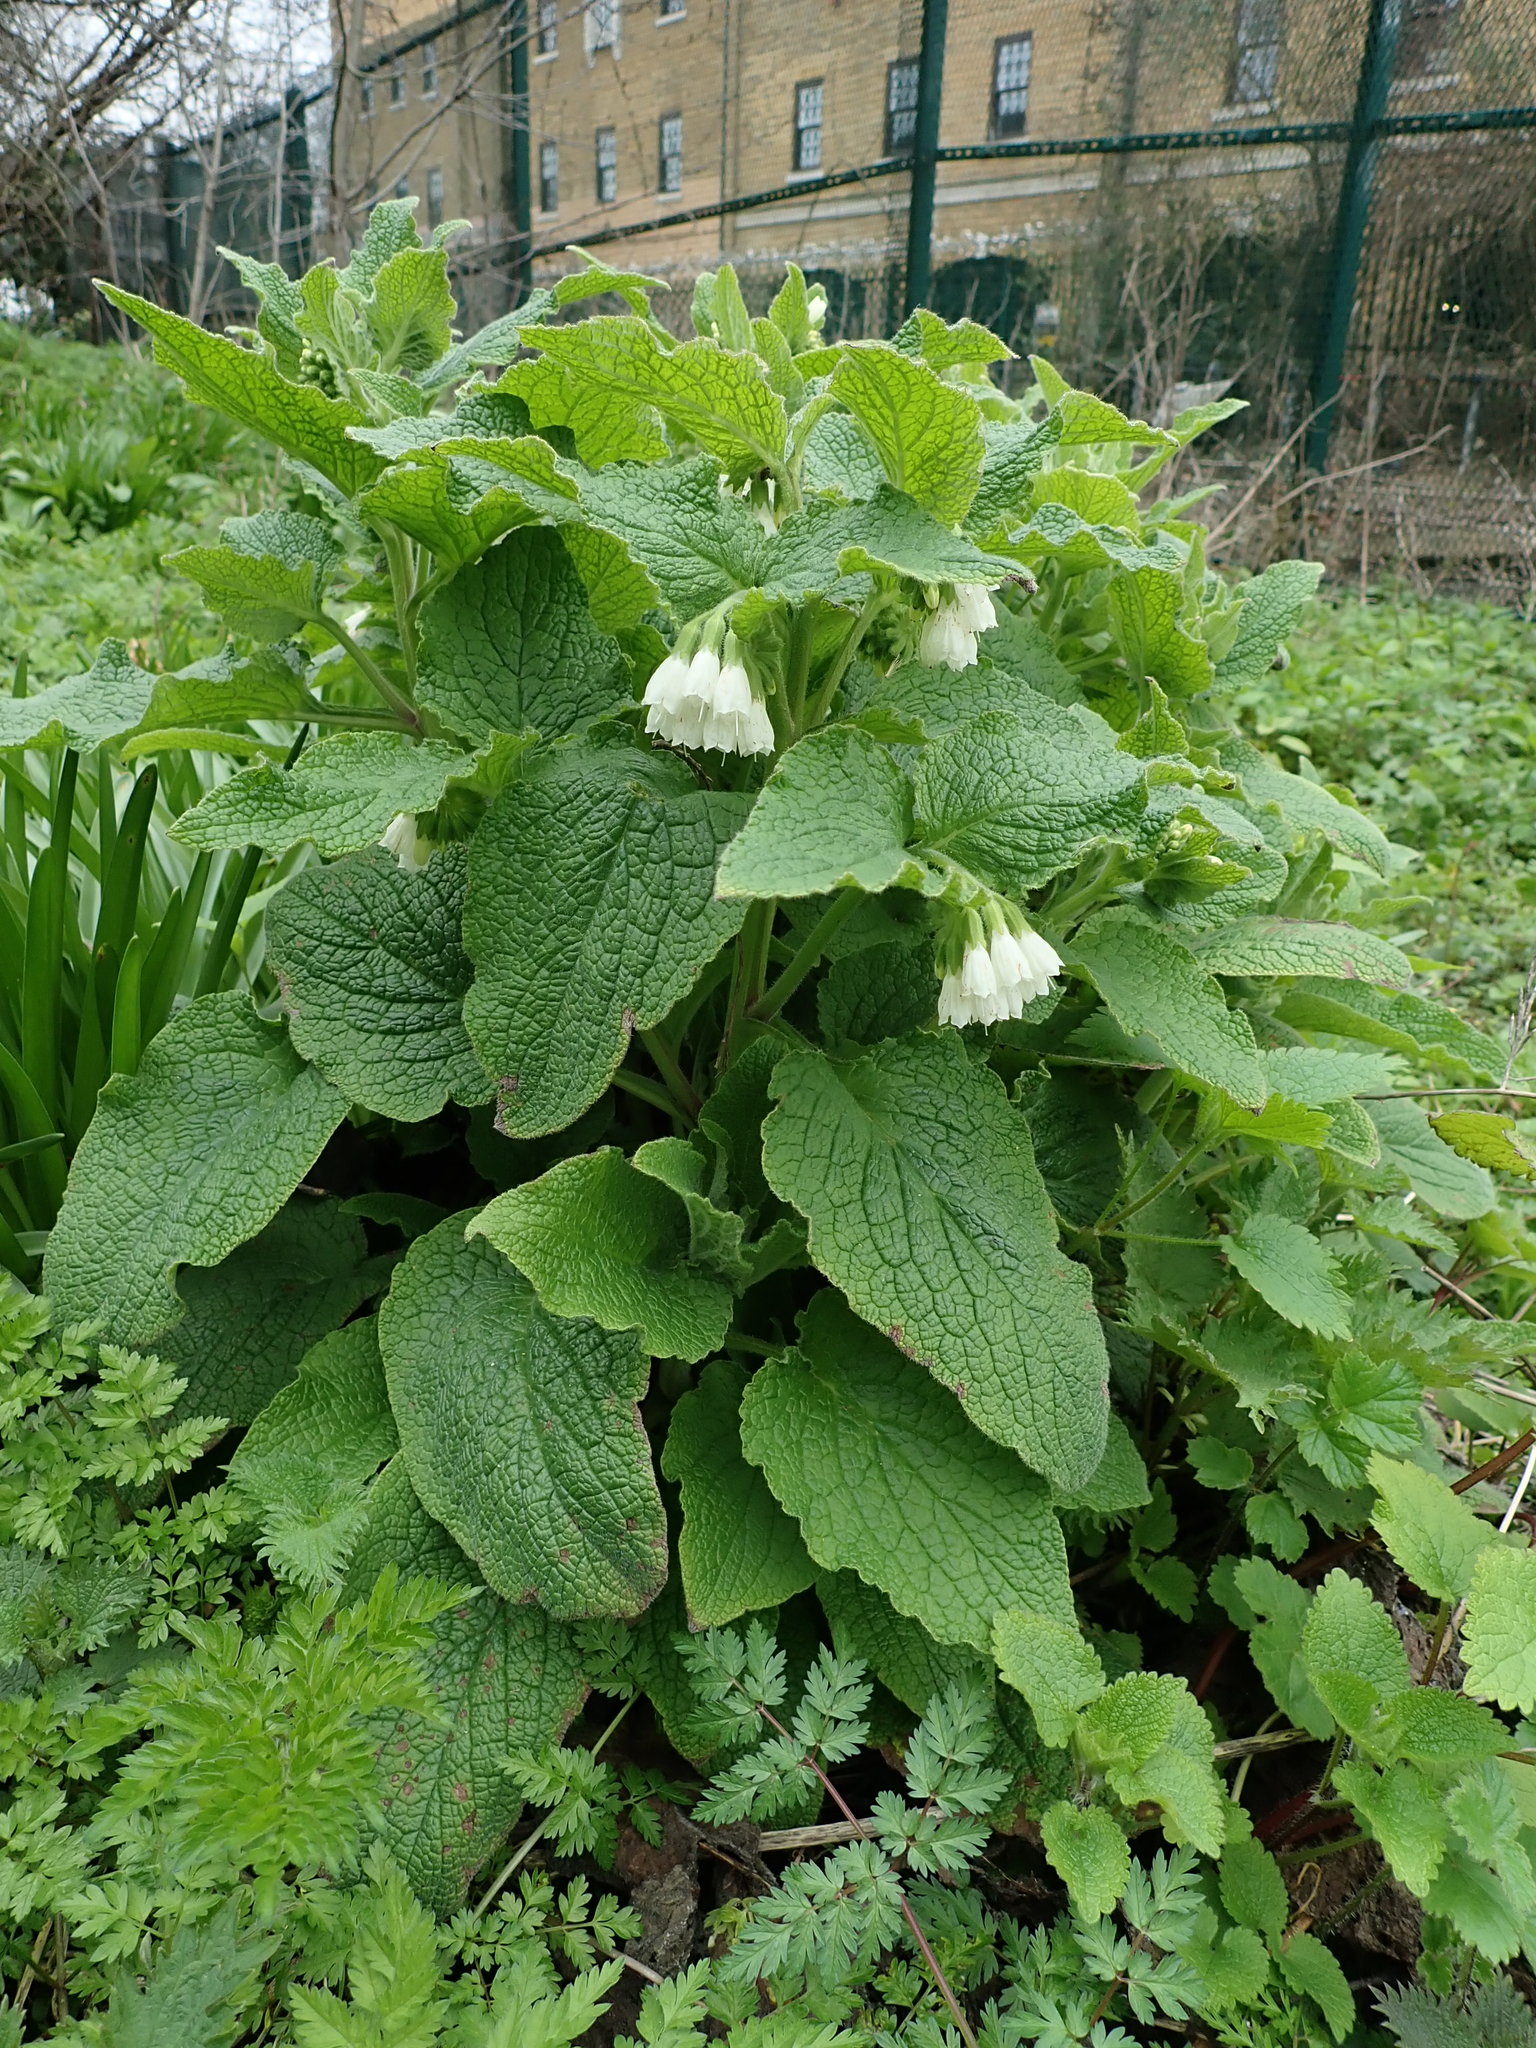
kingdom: Plantae
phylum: Tracheophyta
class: Magnoliopsida
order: Boraginales
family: Boraginaceae
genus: Symphytum
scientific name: Symphytum orientale
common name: White comfrey
